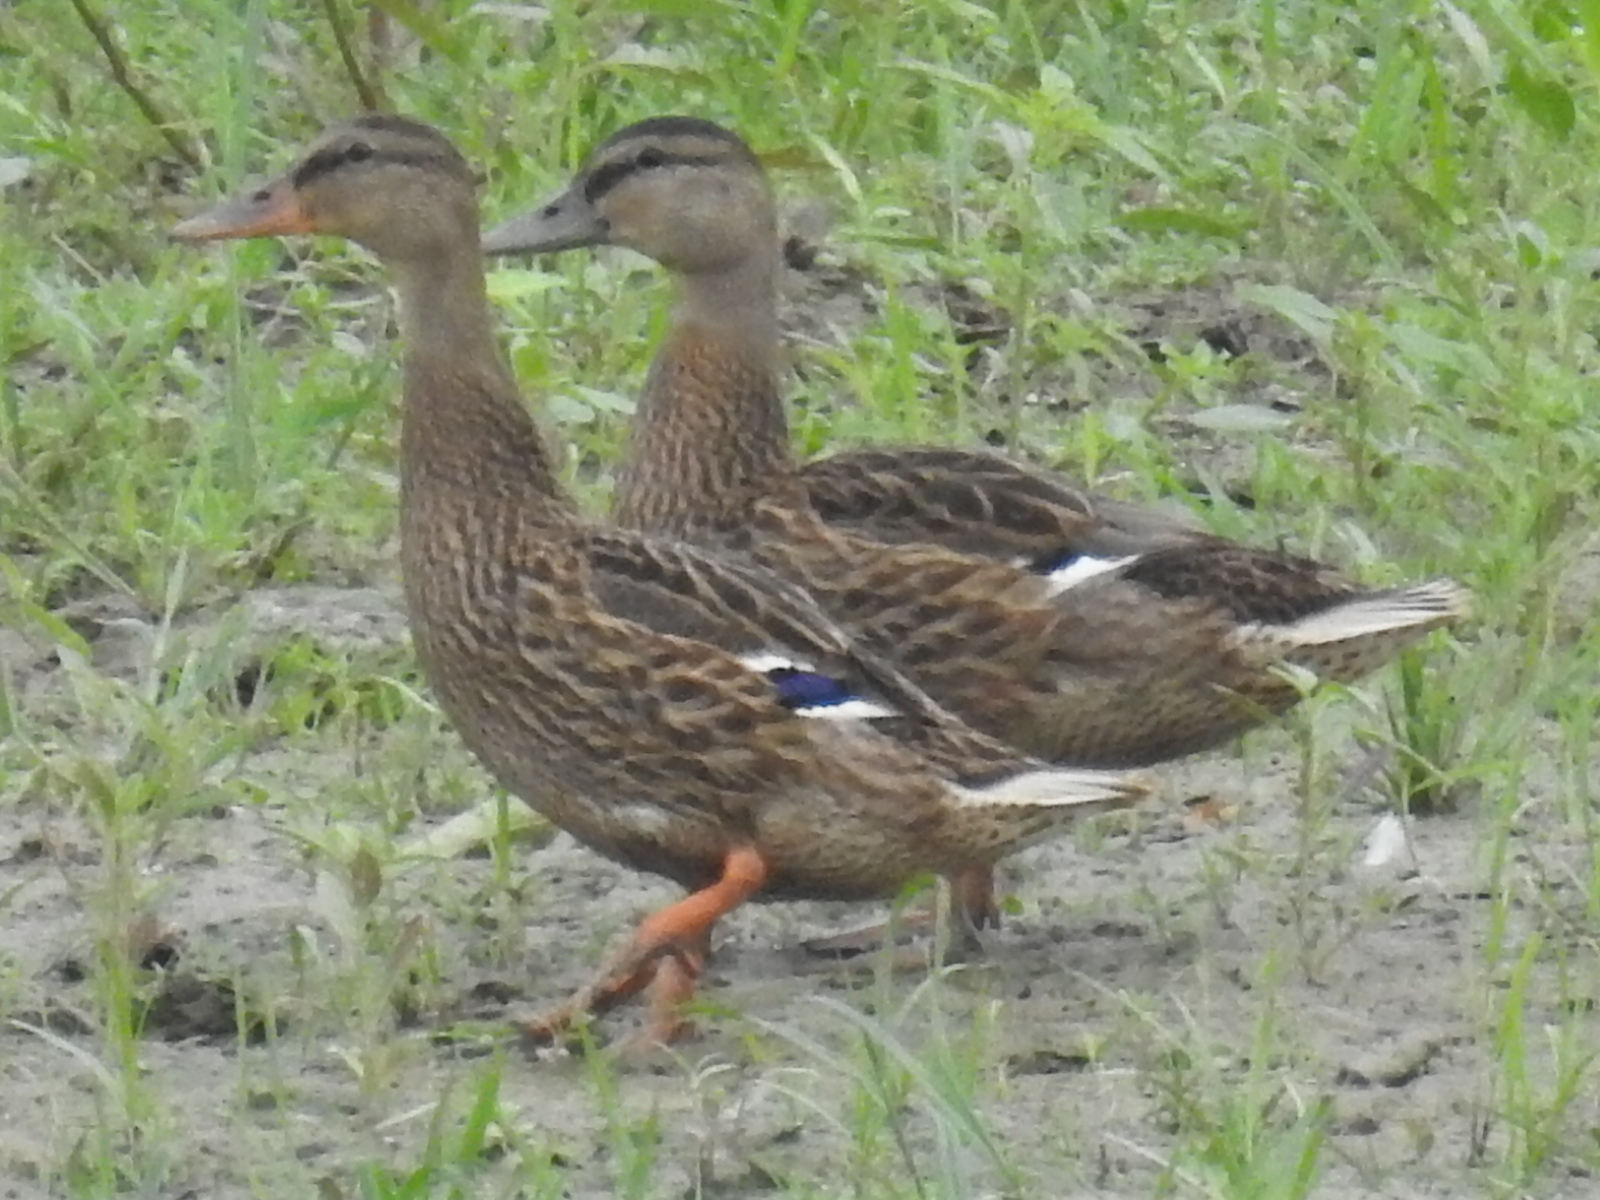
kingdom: Animalia
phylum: Chordata
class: Aves
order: Anseriformes
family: Anatidae
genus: Anas
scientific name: Anas platyrhynchos
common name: Mallard
